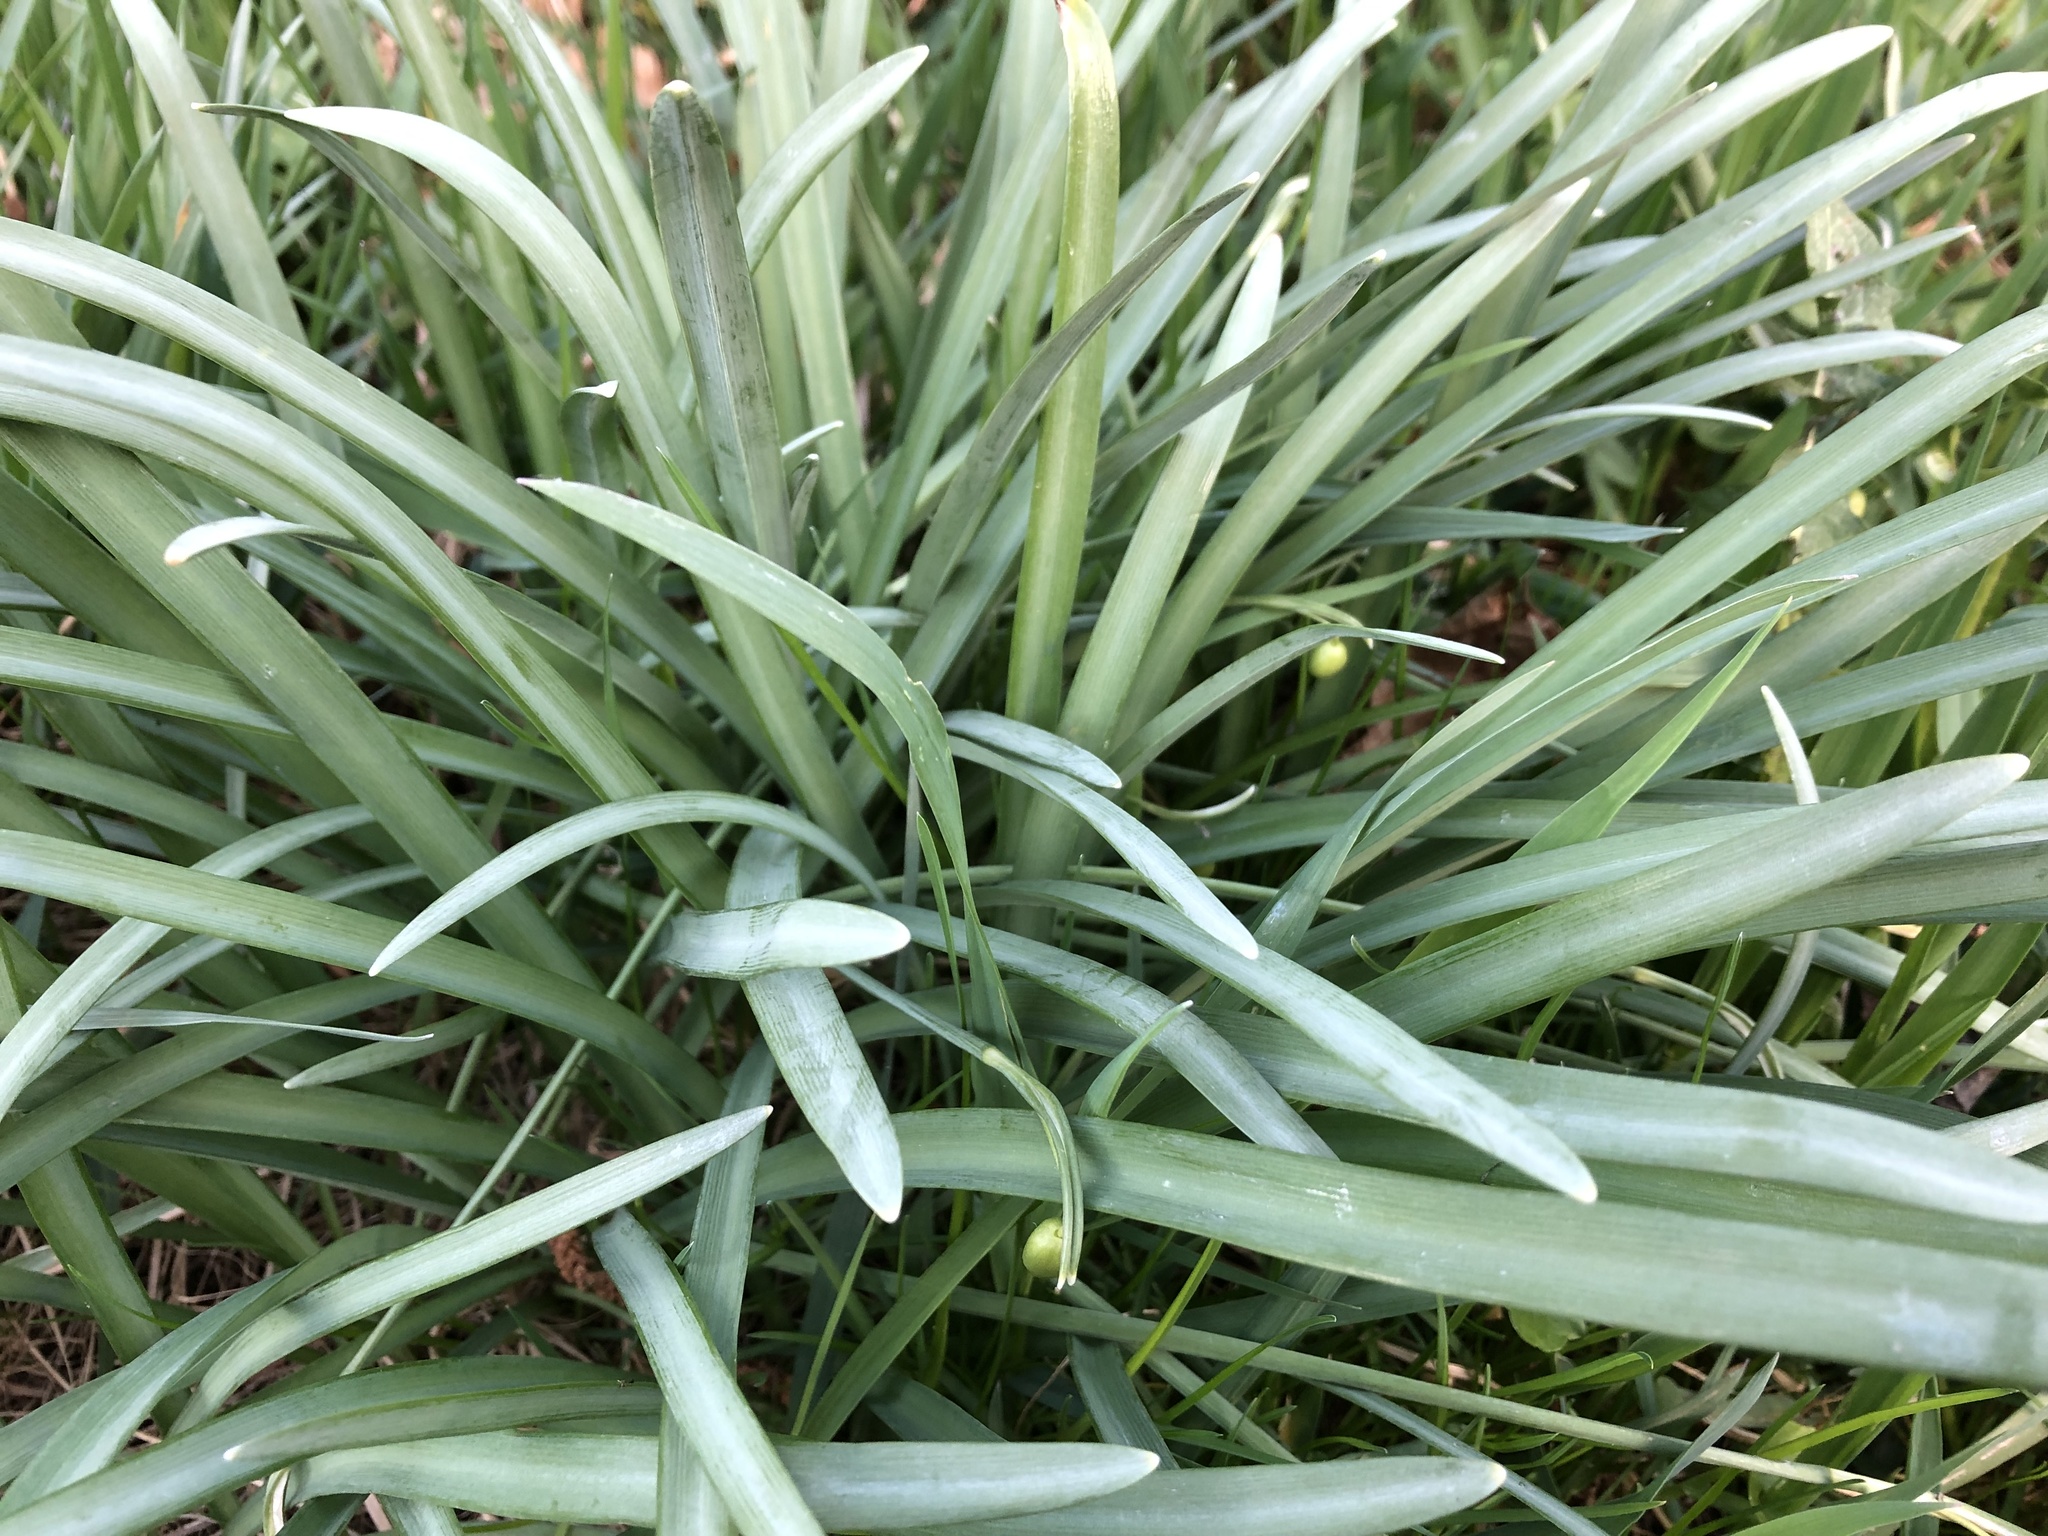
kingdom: Plantae
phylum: Tracheophyta
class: Liliopsida
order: Asparagales
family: Amaryllidaceae
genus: Galanthus
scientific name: Galanthus nivalis
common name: Snowdrop
